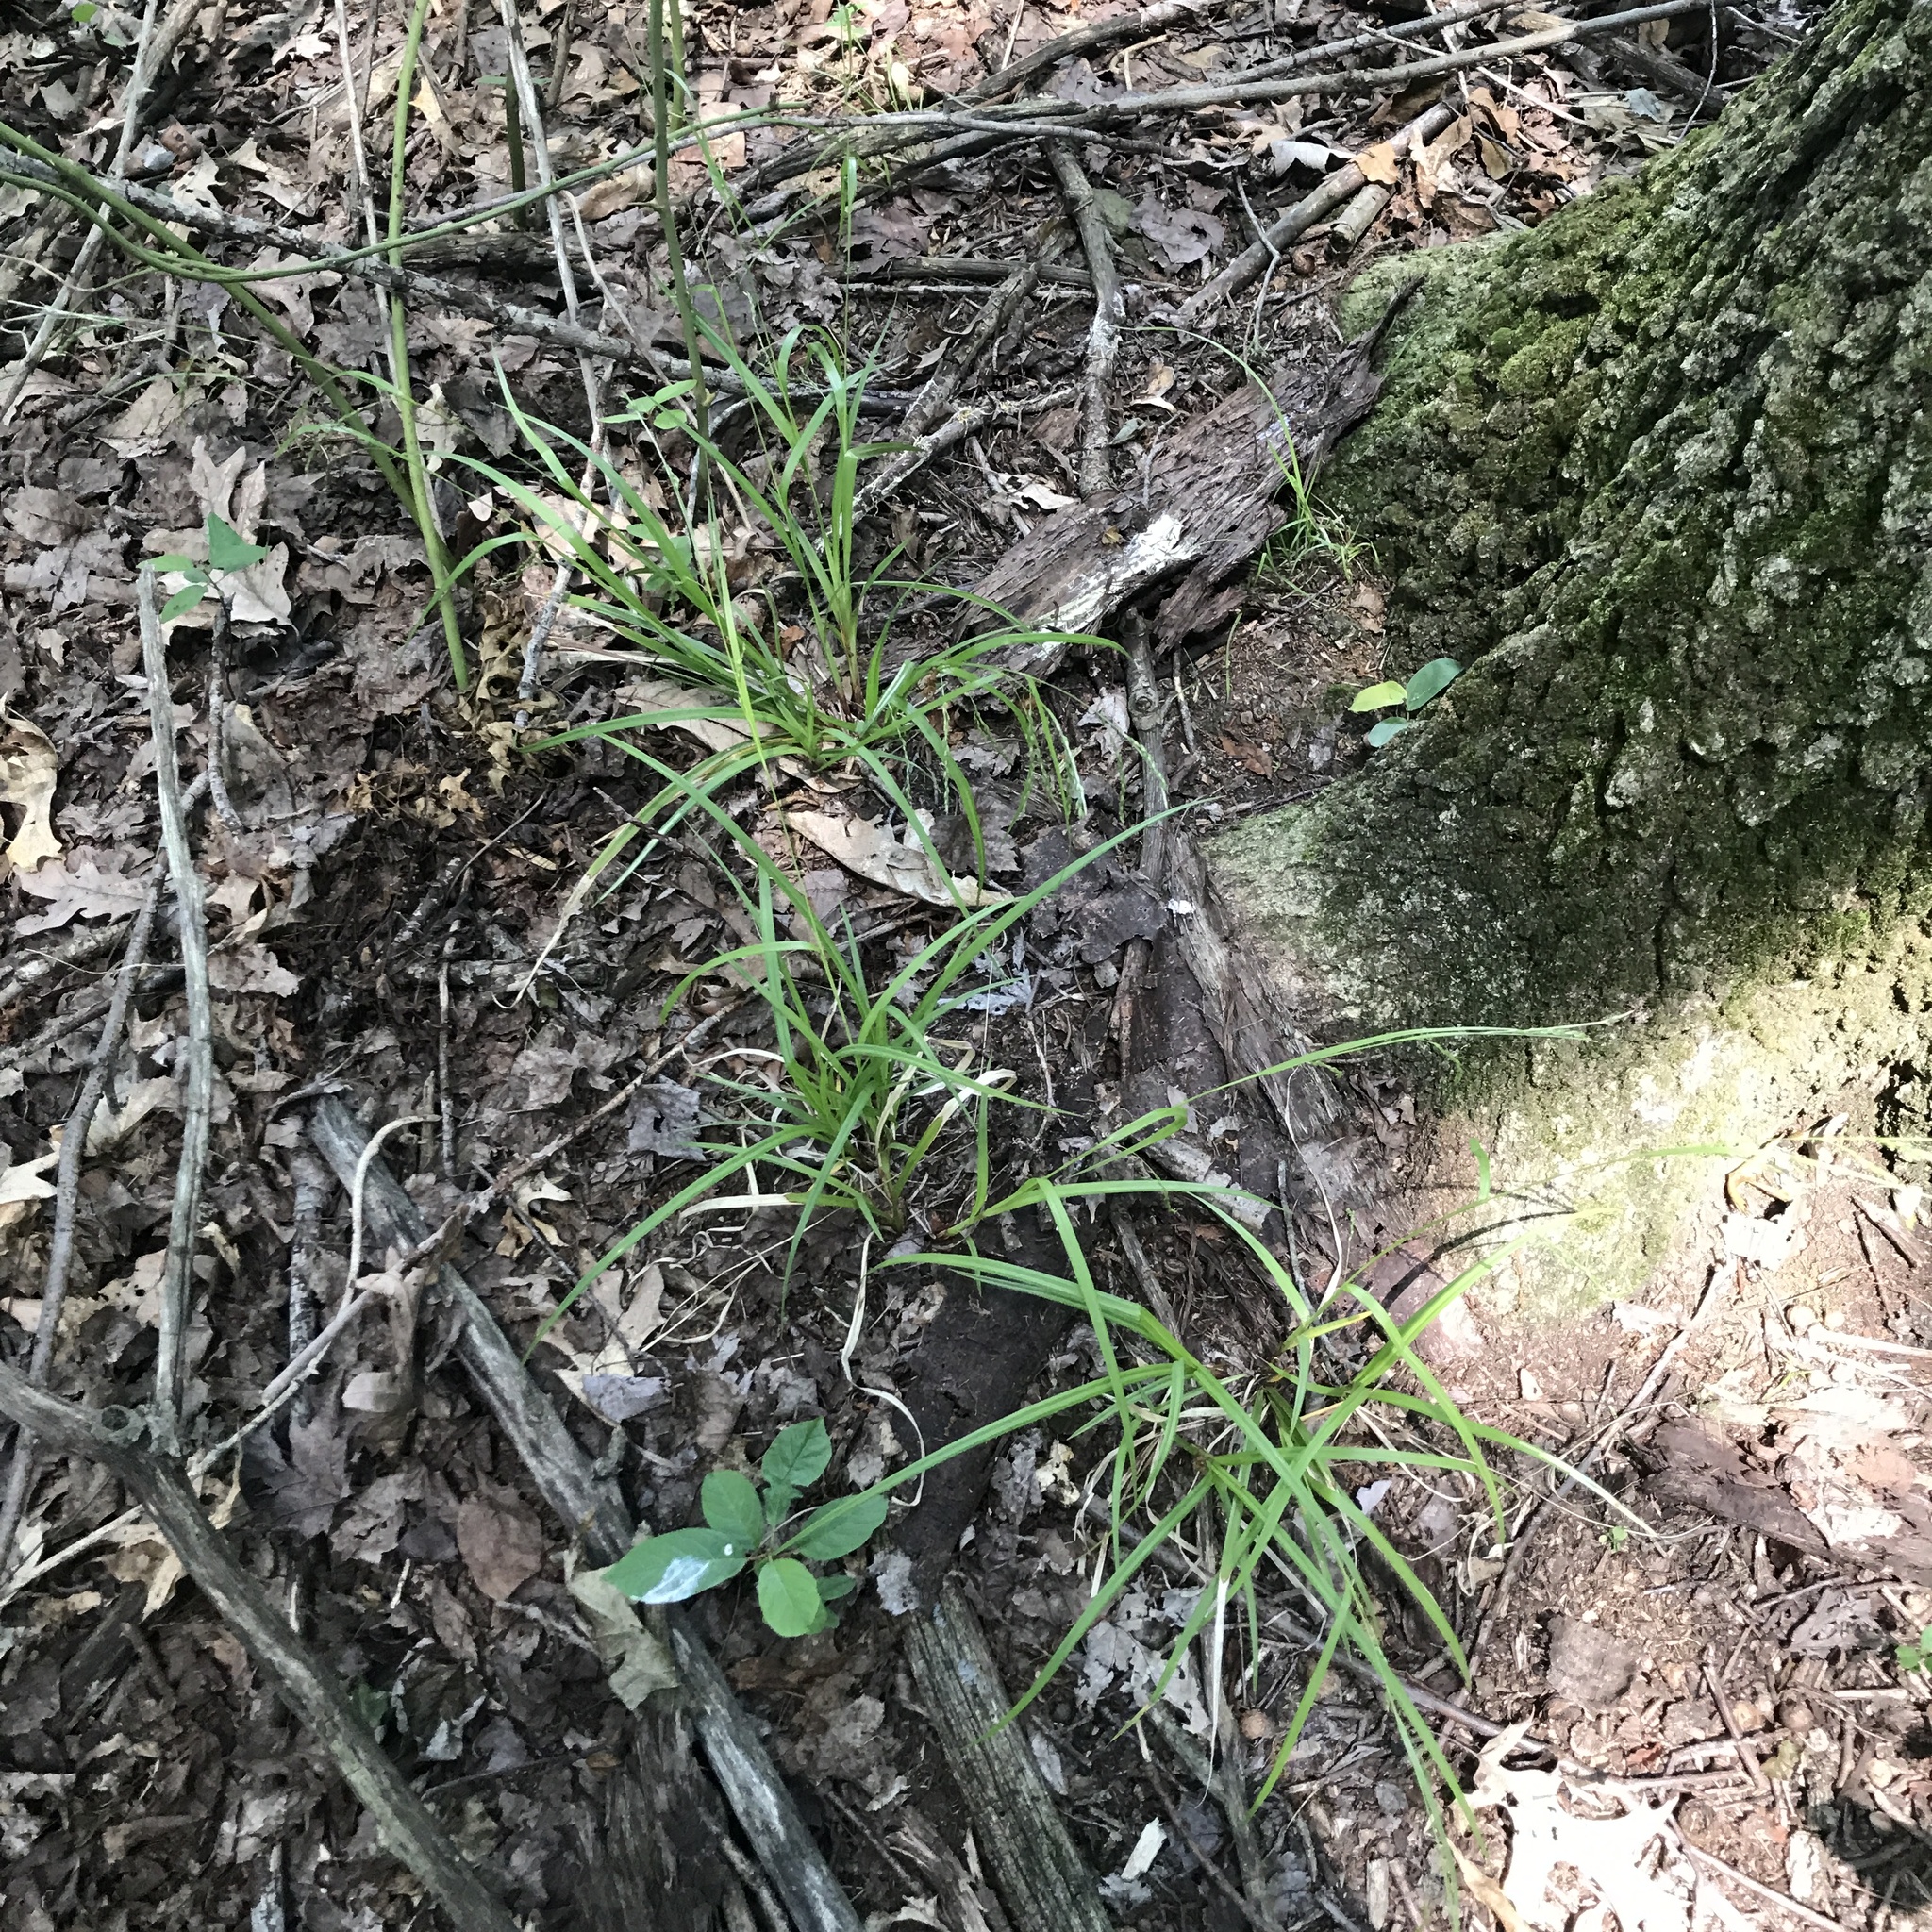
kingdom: Plantae
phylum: Tracheophyta
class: Liliopsida
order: Poales
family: Cyperaceae
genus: Carex
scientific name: Carex debilis
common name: White-edge sedge
